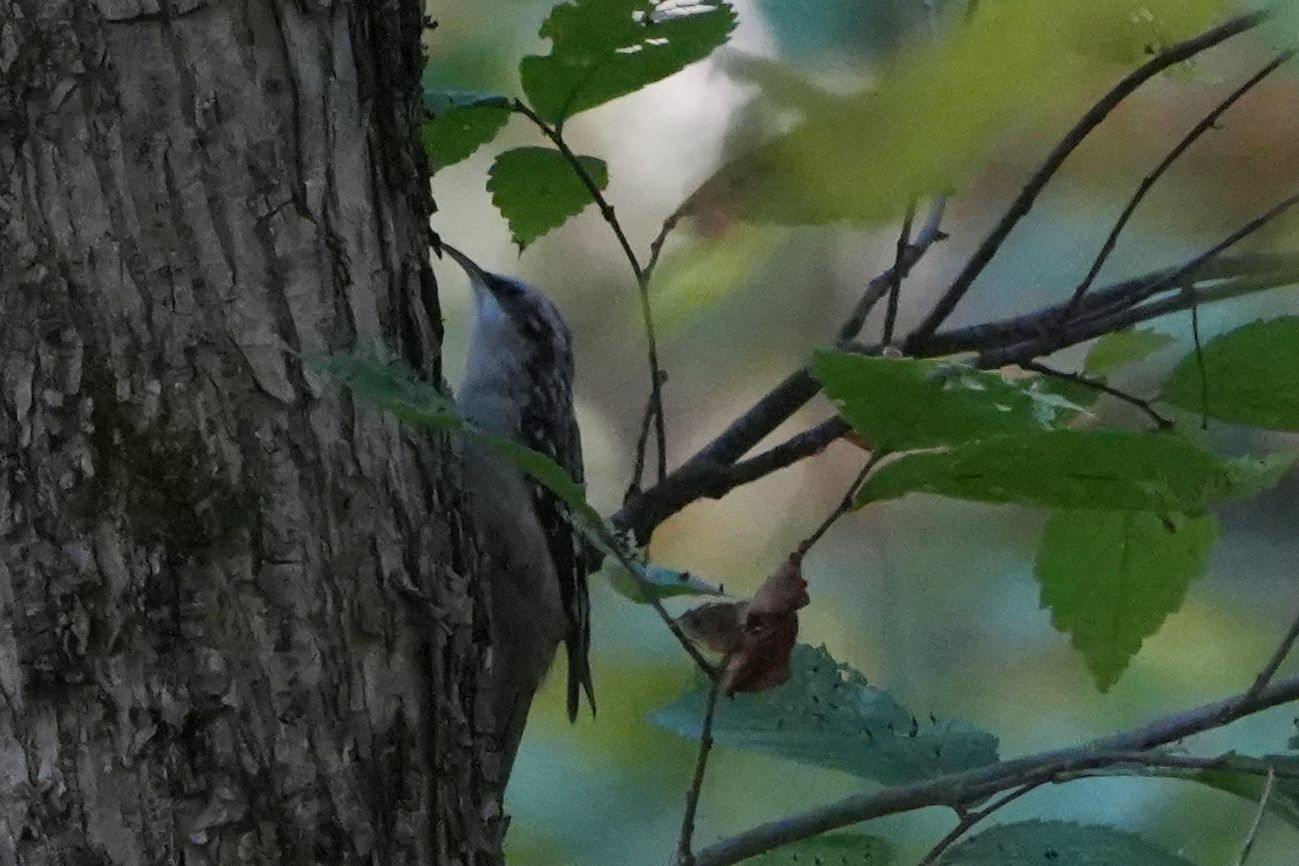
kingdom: Animalia
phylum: Chordata
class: Aves
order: Passeriformes
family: Certhiidae
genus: Certhia
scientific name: Certhia americana
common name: Brown creeper
